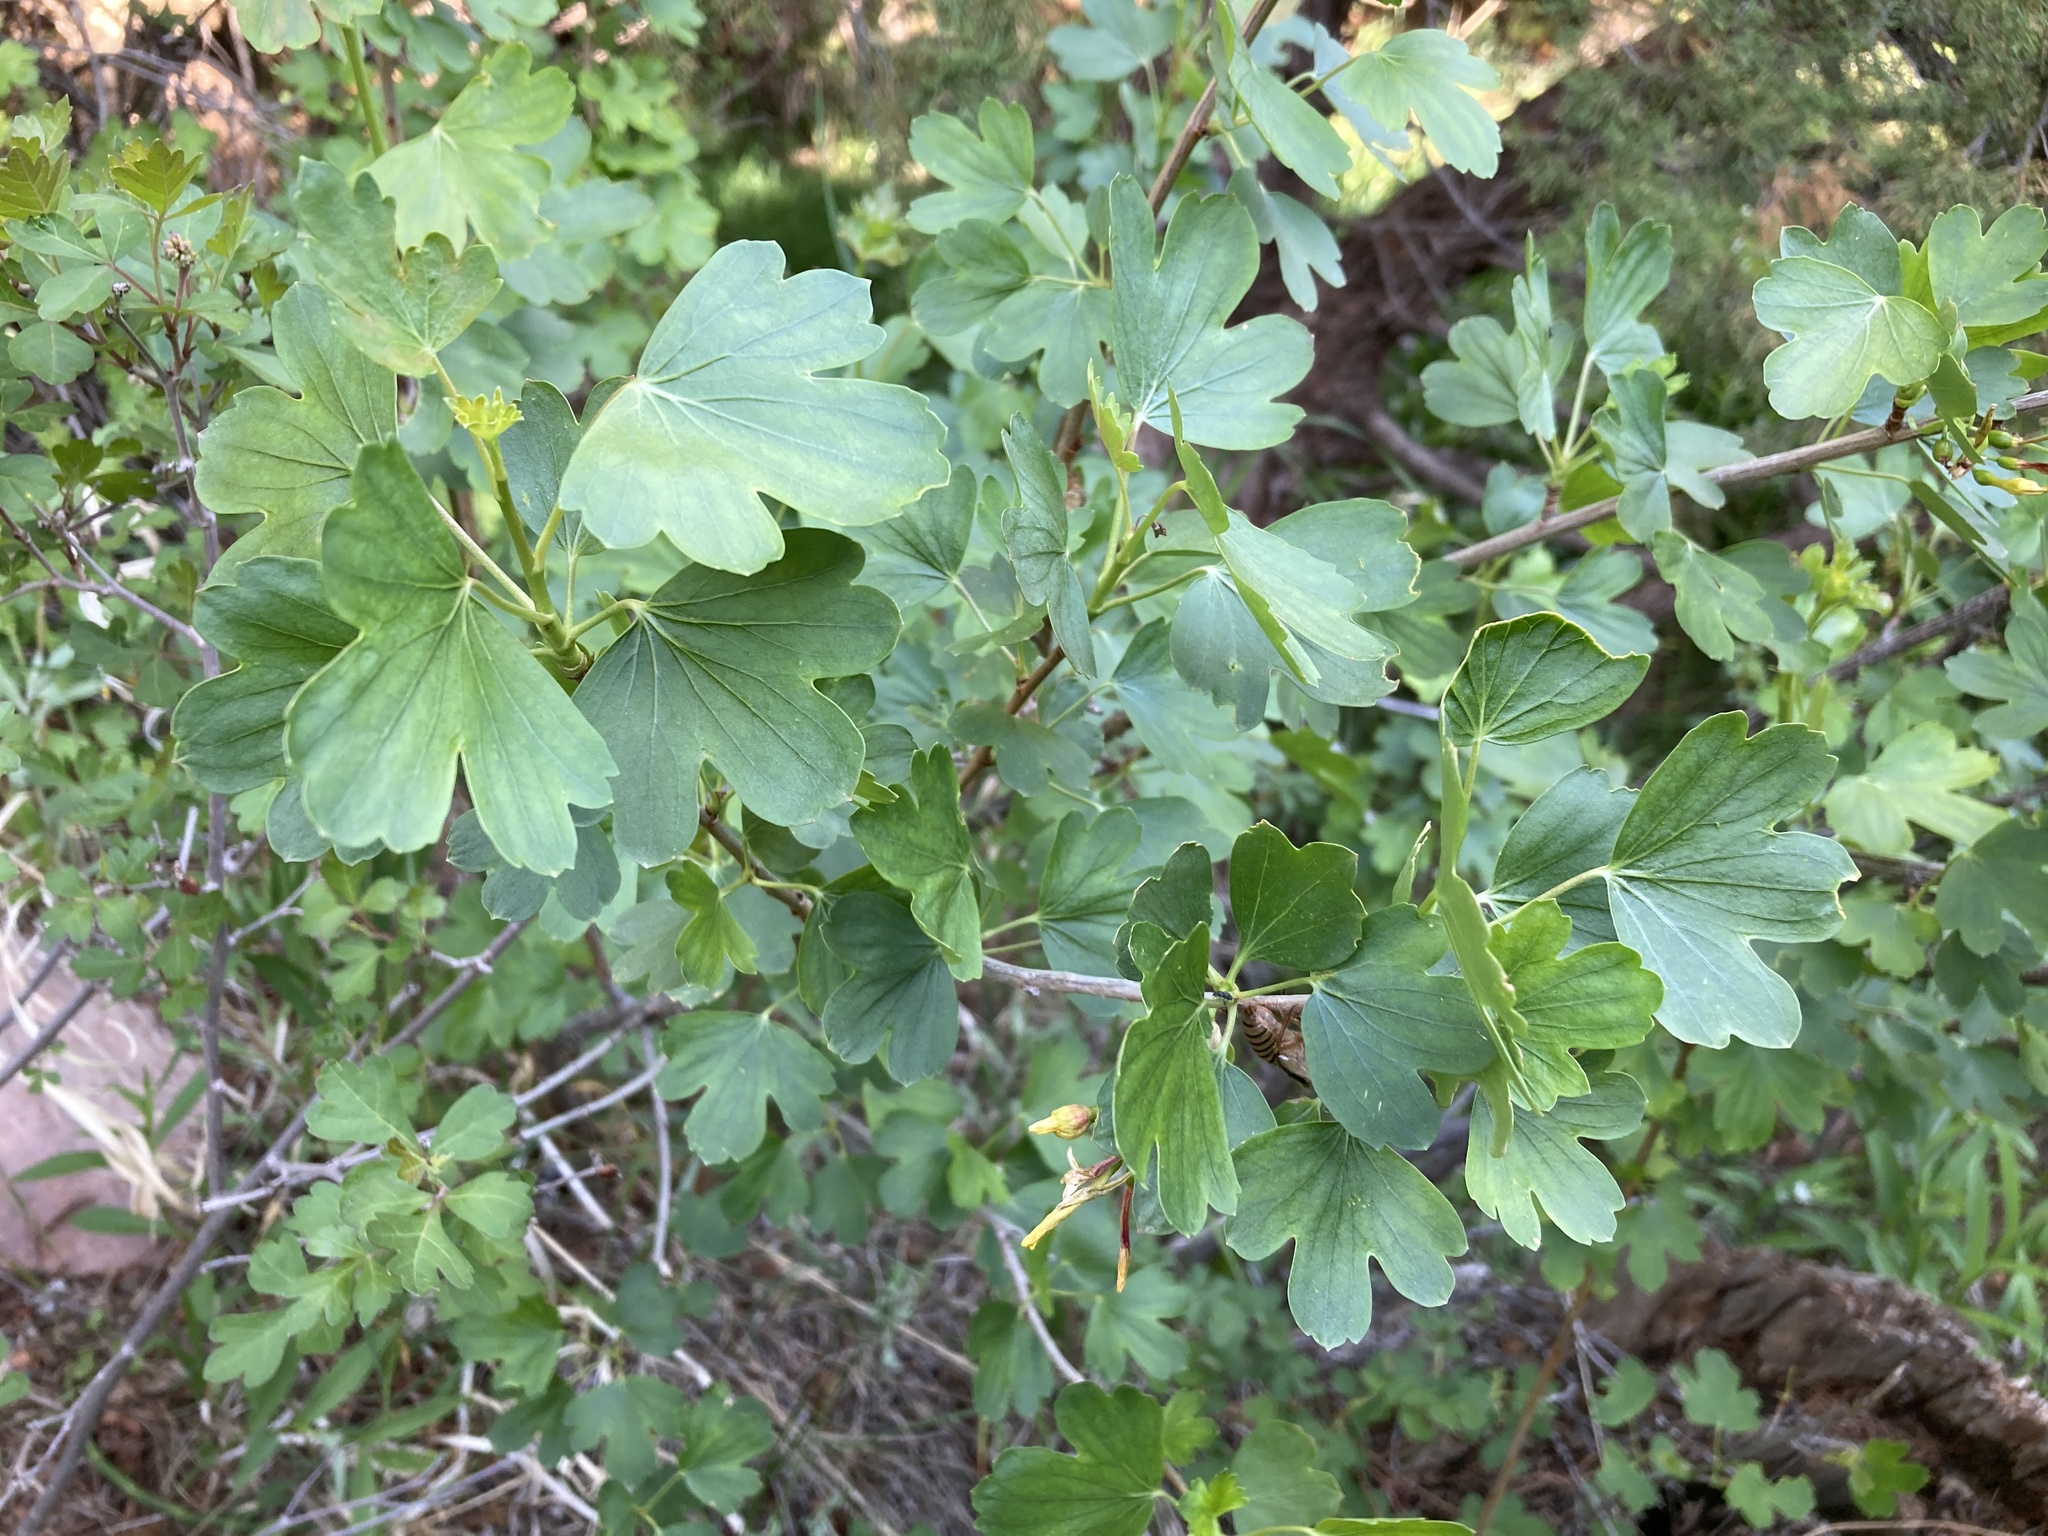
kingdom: Plantae
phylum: Tracheophyta
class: Magnoliopsida
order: Saxifragales
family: Grossulariaceae
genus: Ribes
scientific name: Ribes aureum
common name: Golden currant
